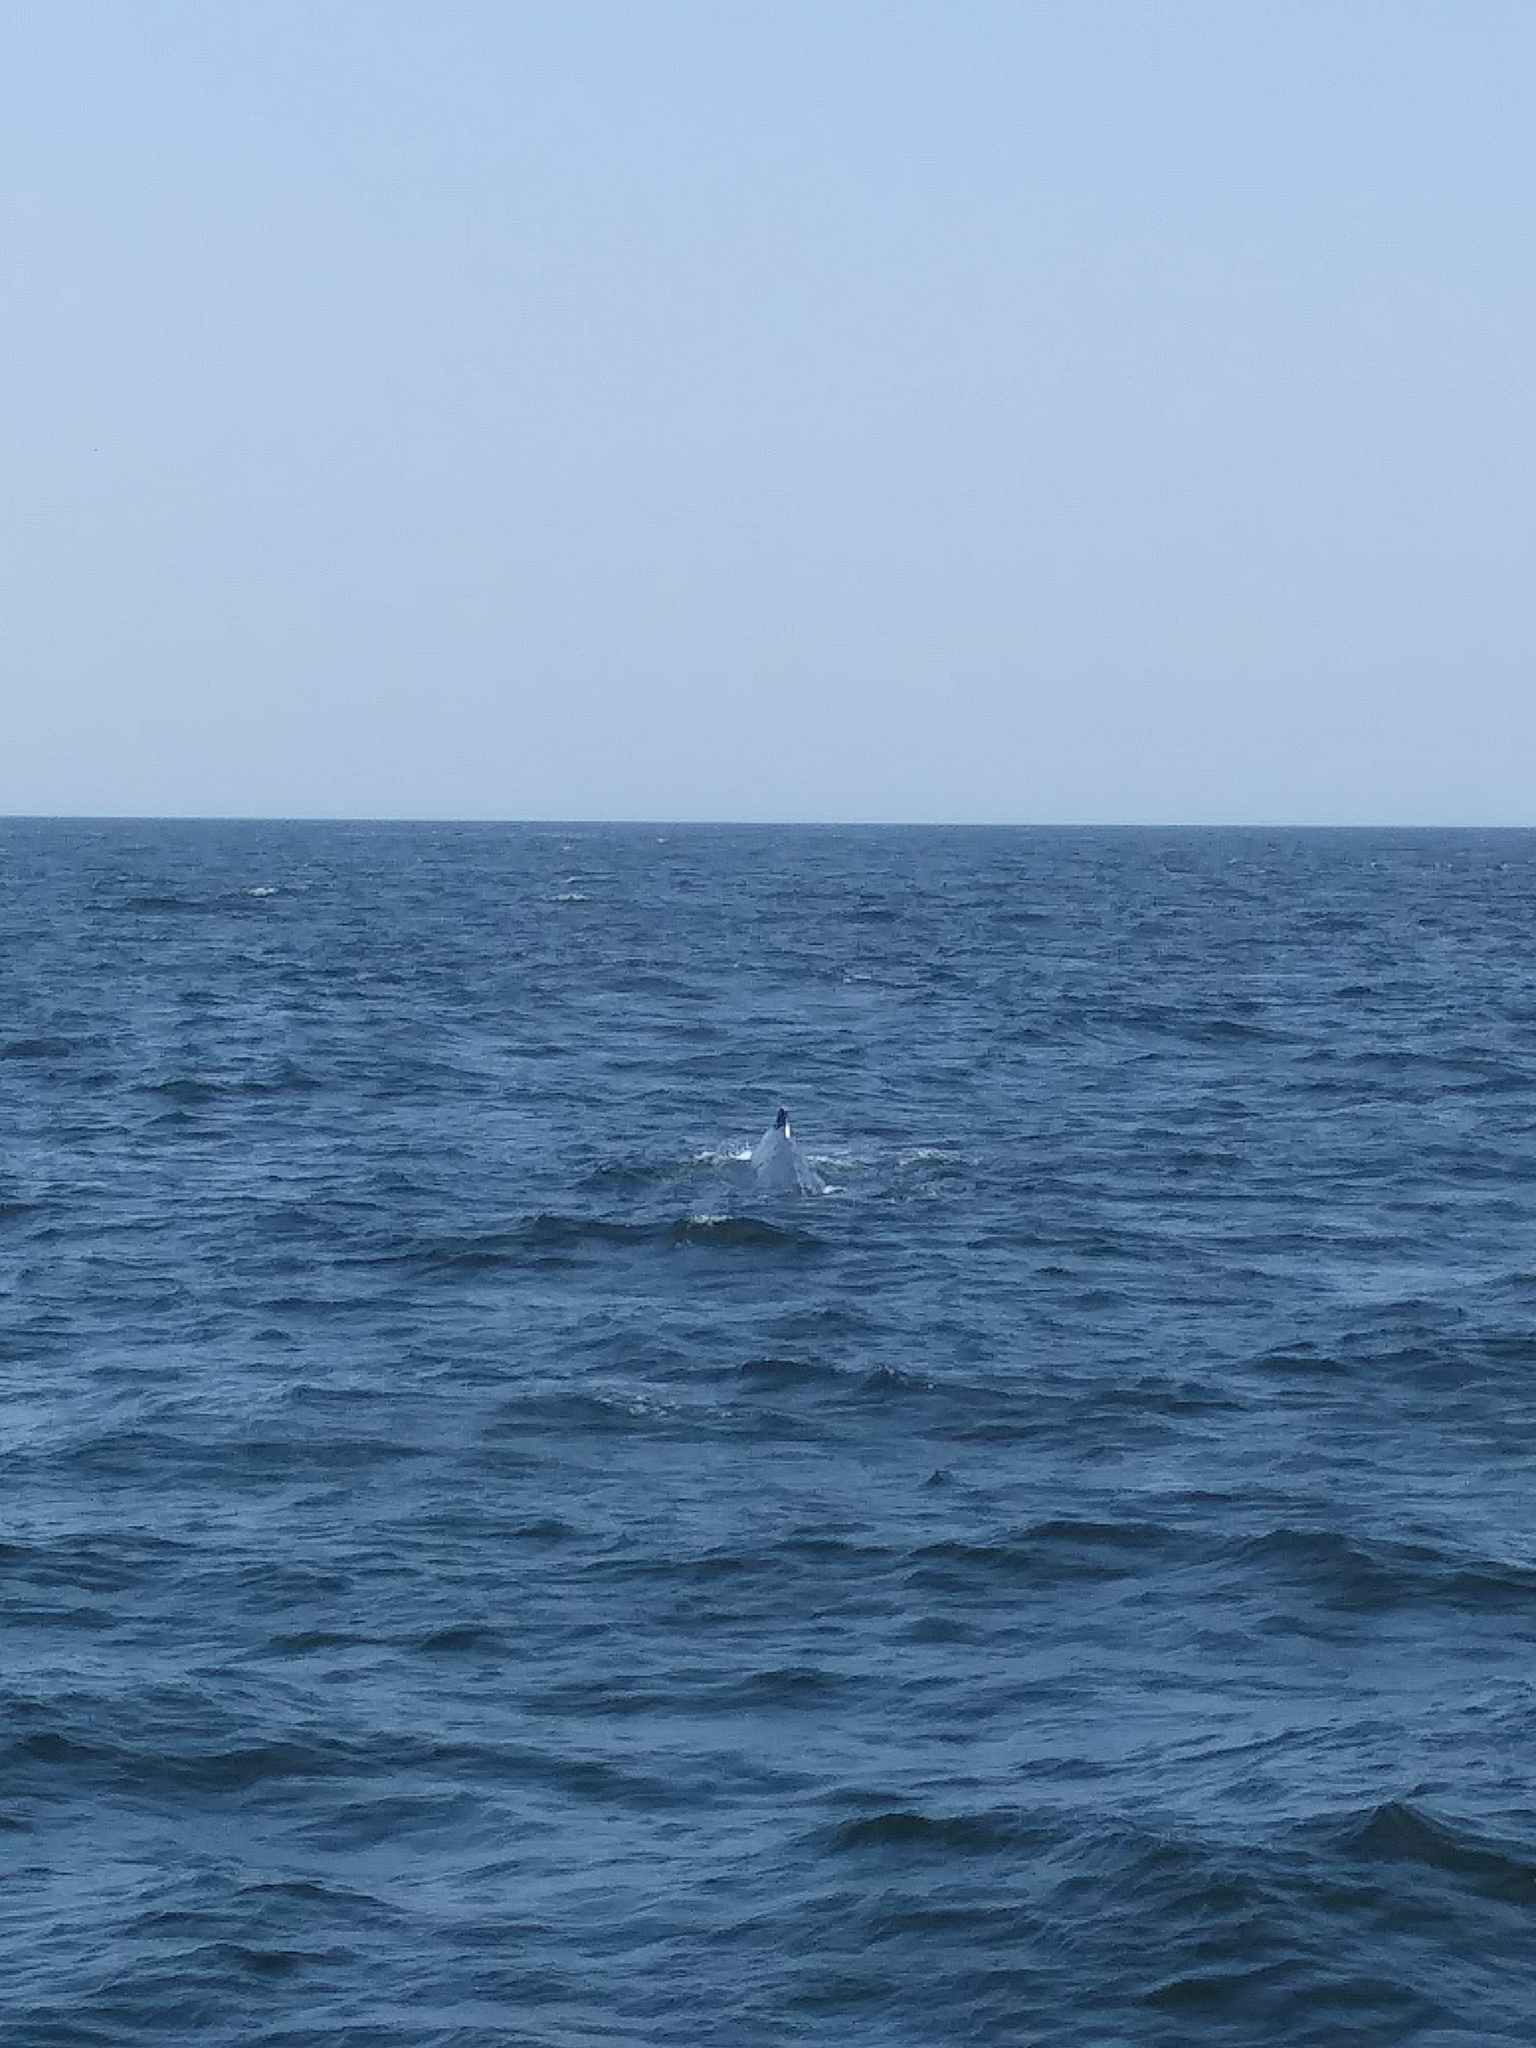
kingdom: Animalia
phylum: Chordata
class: Mammalia
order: Cetacea
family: Balaenopteridae
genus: Megaptera
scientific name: Megaptera novaeangliae
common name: Humpback whale
